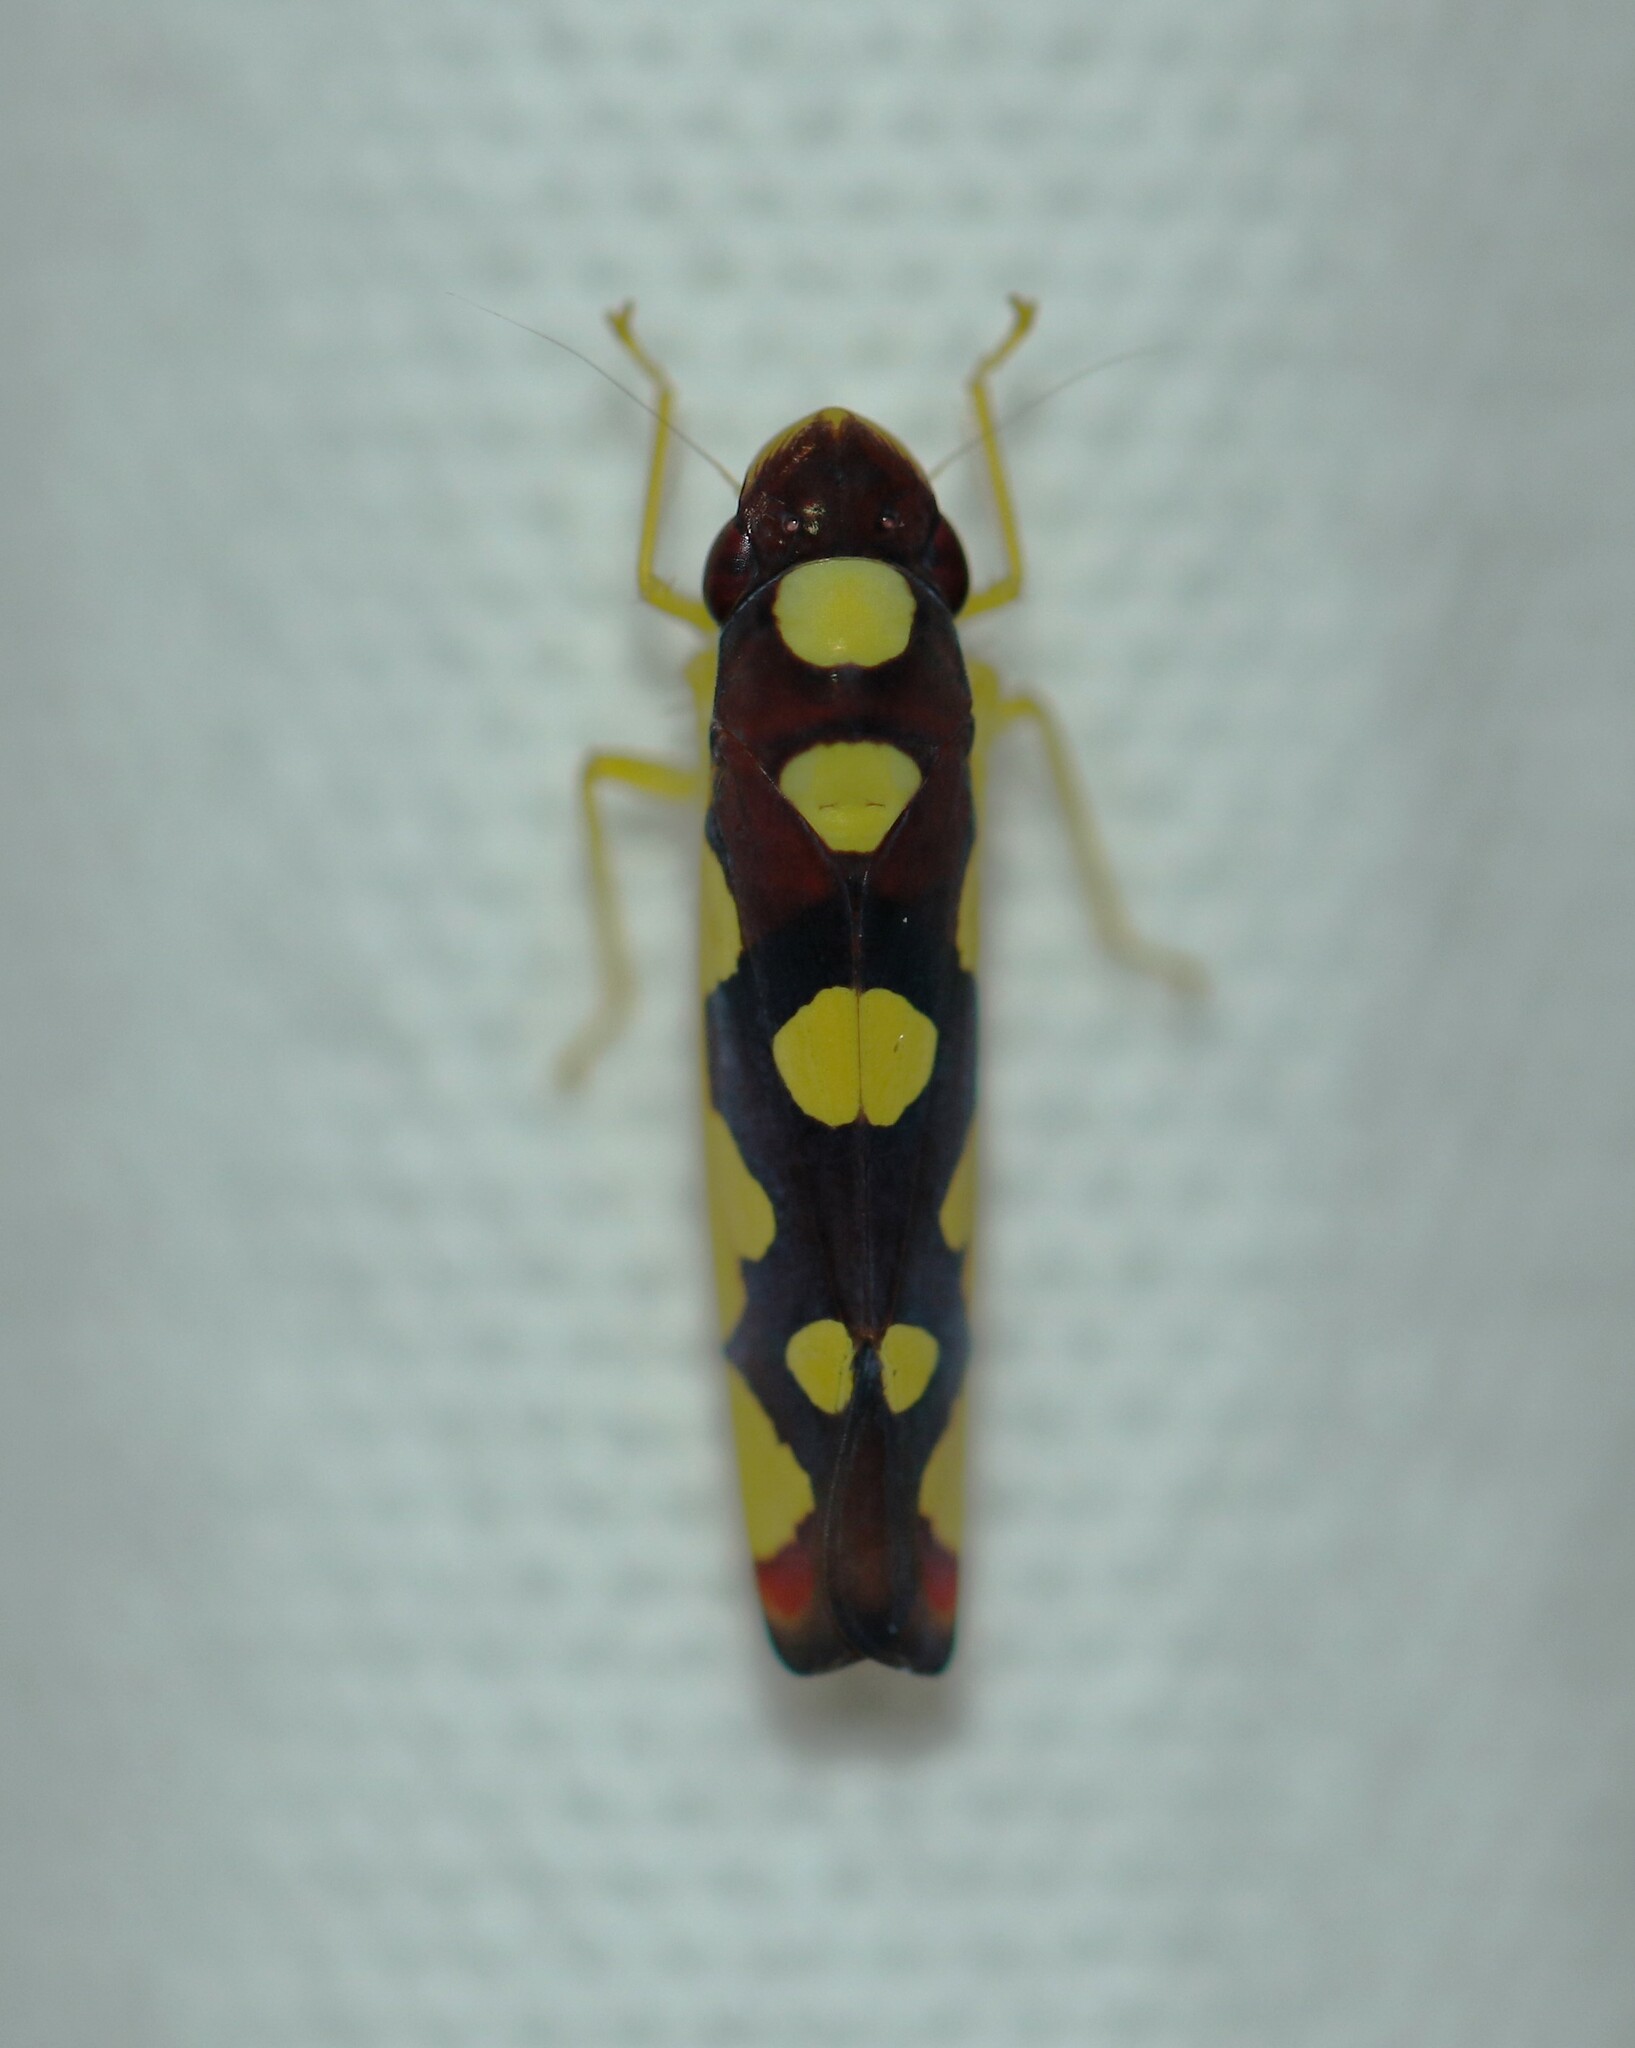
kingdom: Animalia
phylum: Arthropoda
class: Insecta
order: Hemiptera
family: Cicadellidae
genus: Baleja
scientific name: Baleja flavoguttata
